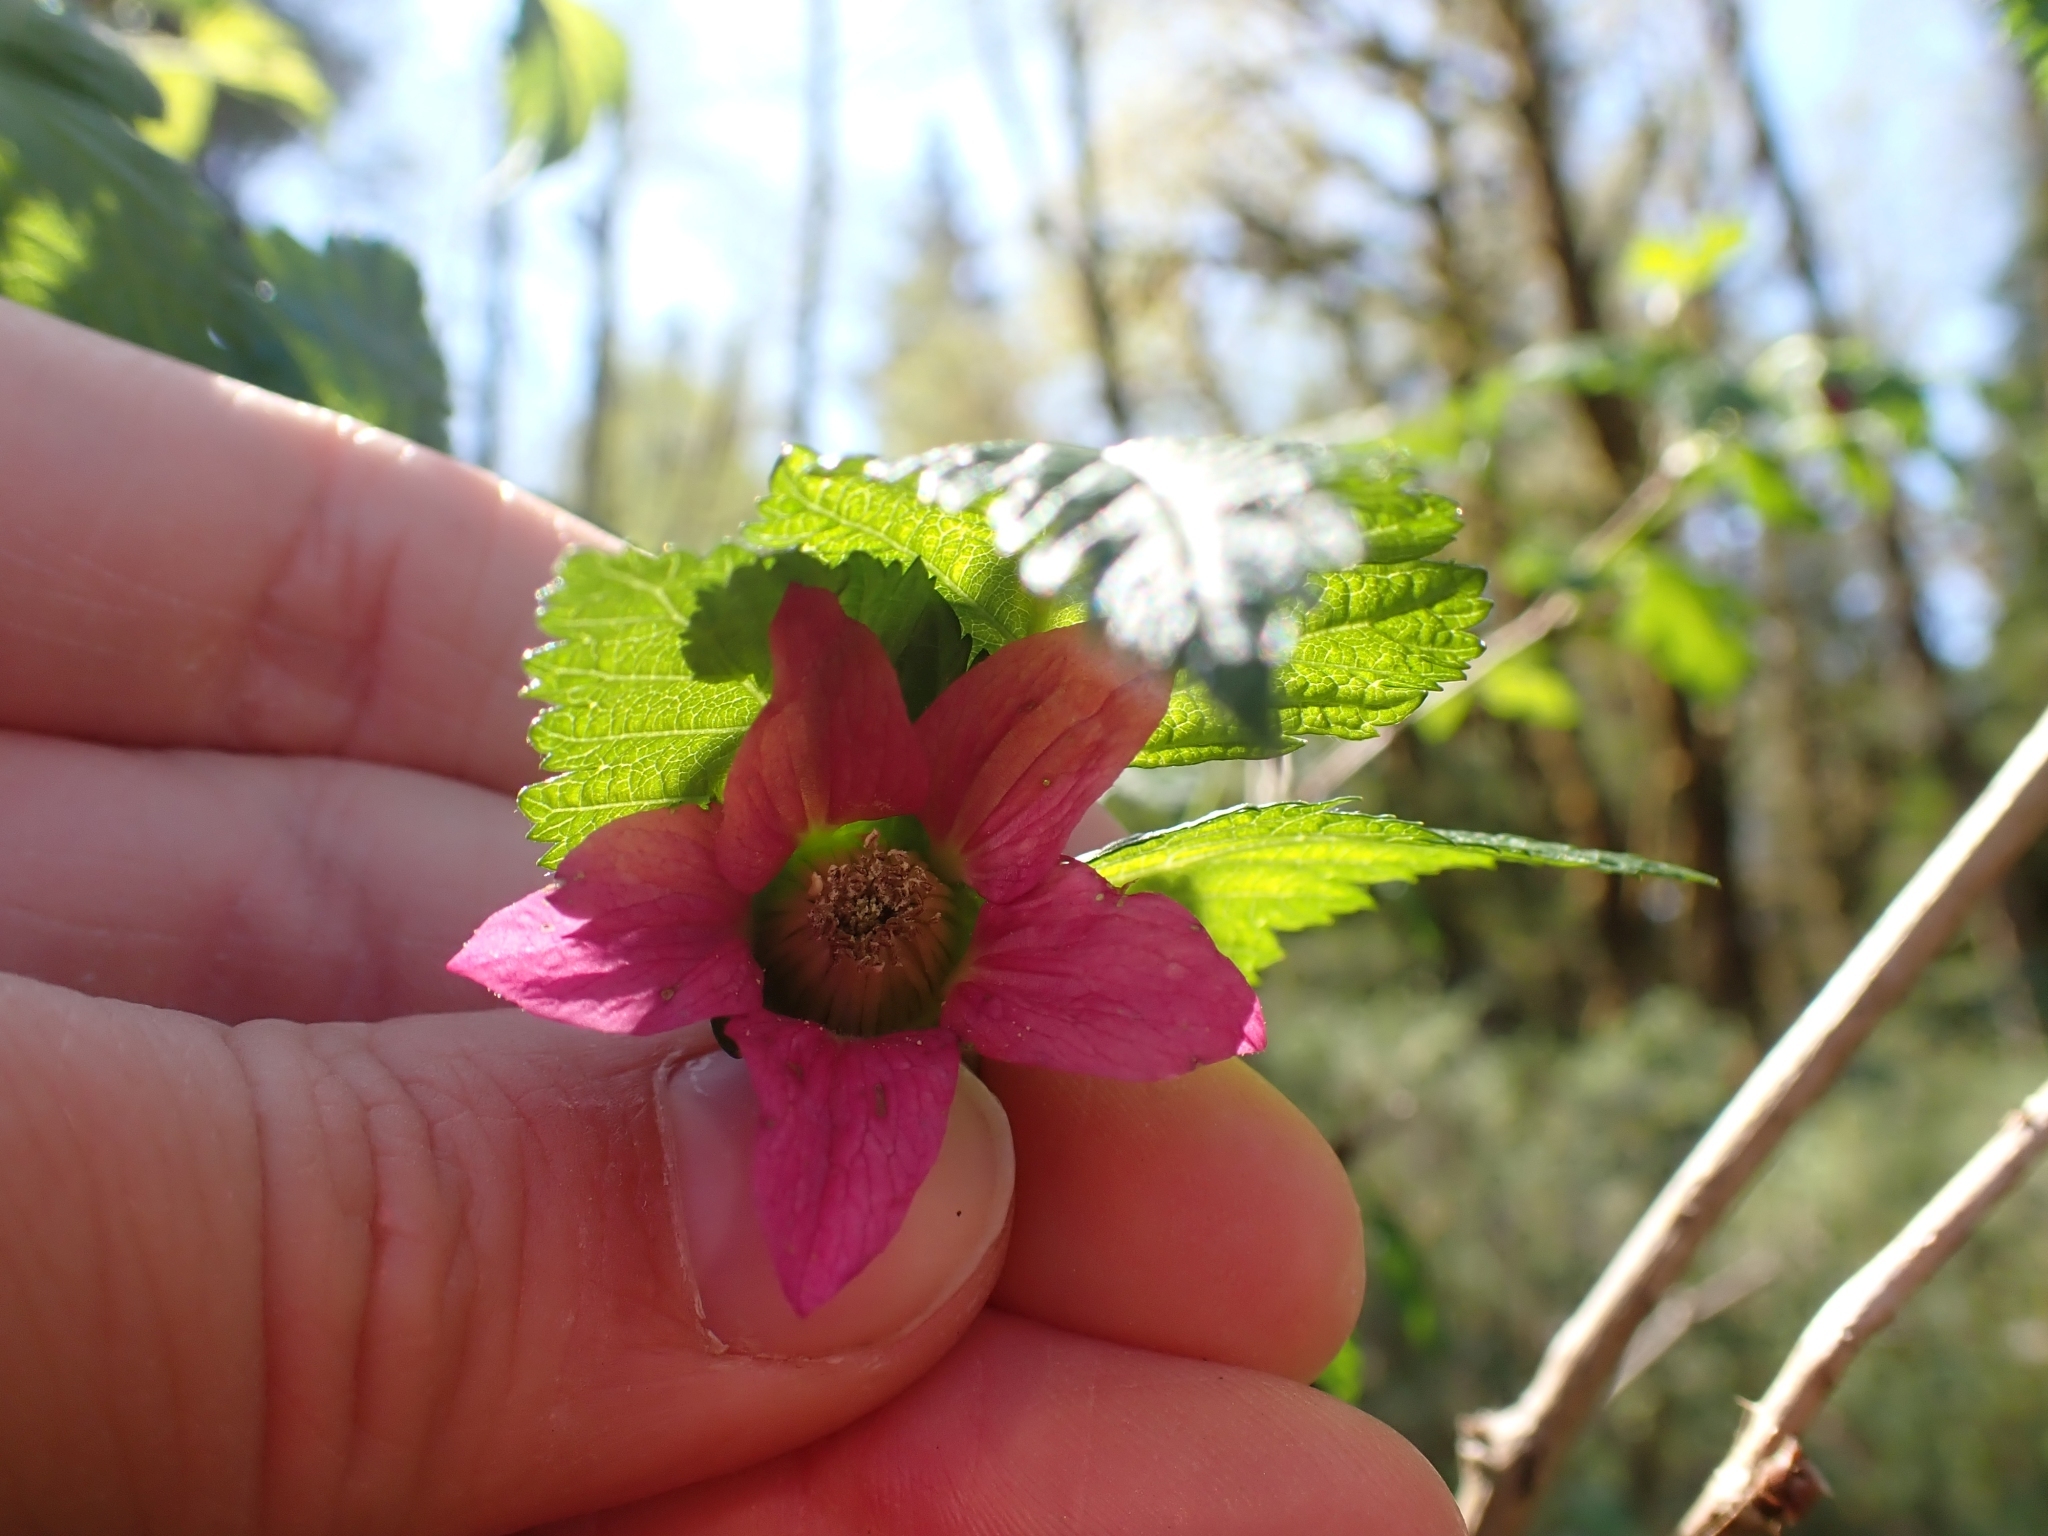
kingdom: Plantae
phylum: Tracheophyta
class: Magnoliopsida
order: Rosales
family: Rosaceae
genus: Rubus
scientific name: Rubus spectabilis
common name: Salmonberry
